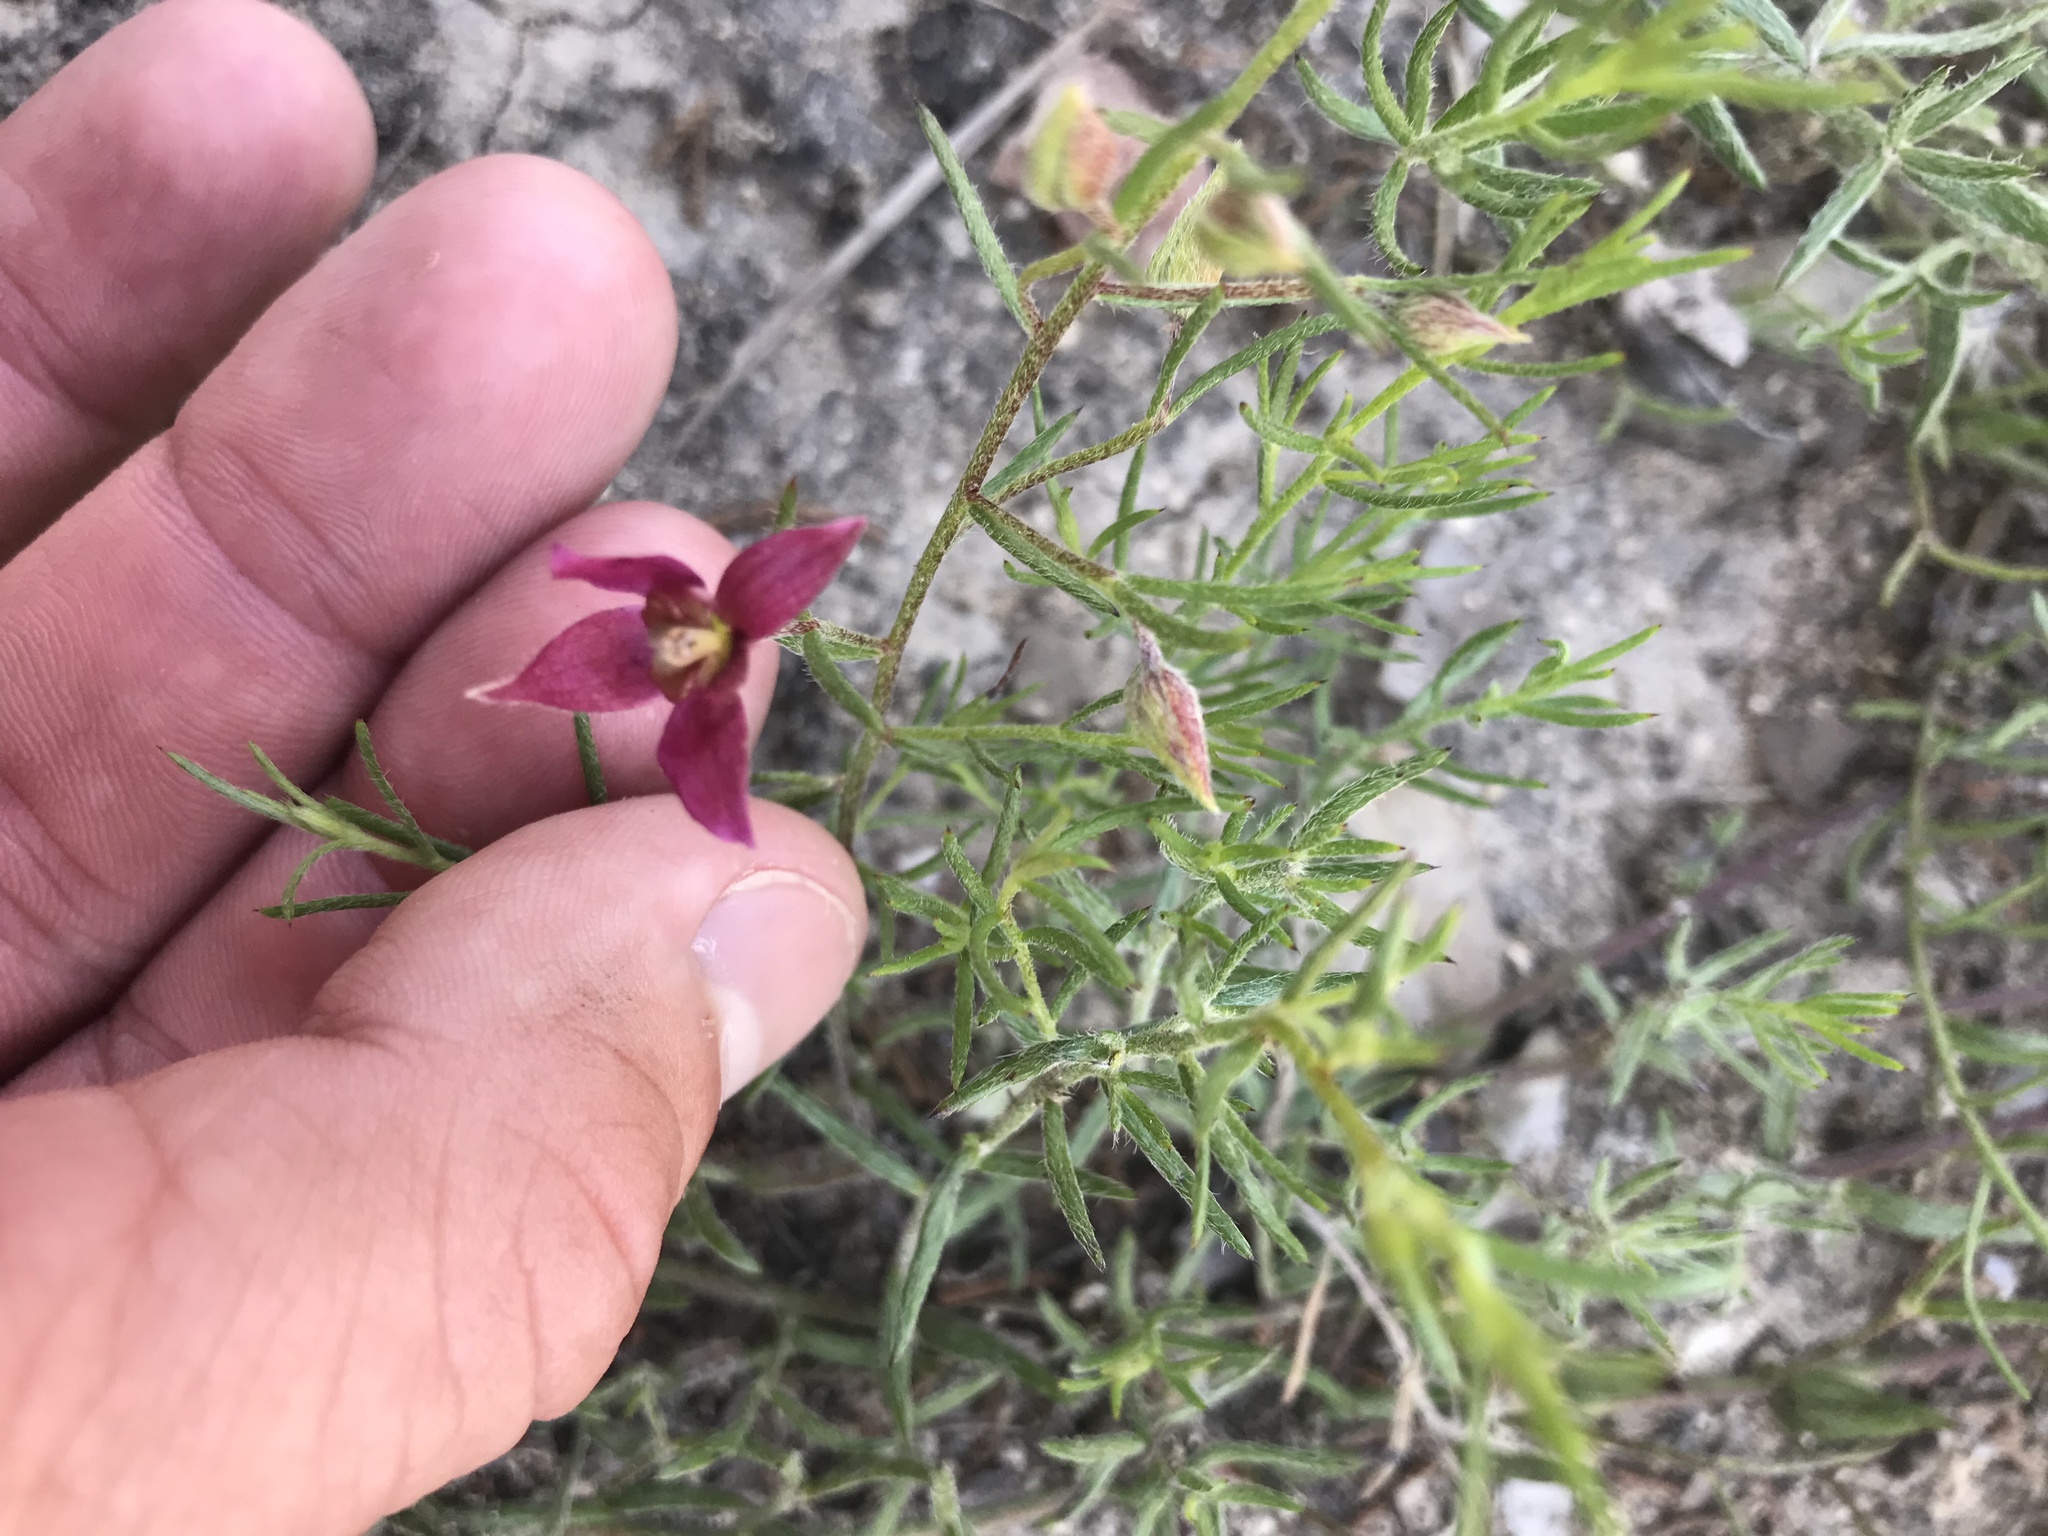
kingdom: Plantae
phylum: Tracheophyta
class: Magnoliopsida
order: Zygophyllales
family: Krameriaceae
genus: Krameria
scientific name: Krameria lanceolata
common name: Ratany
